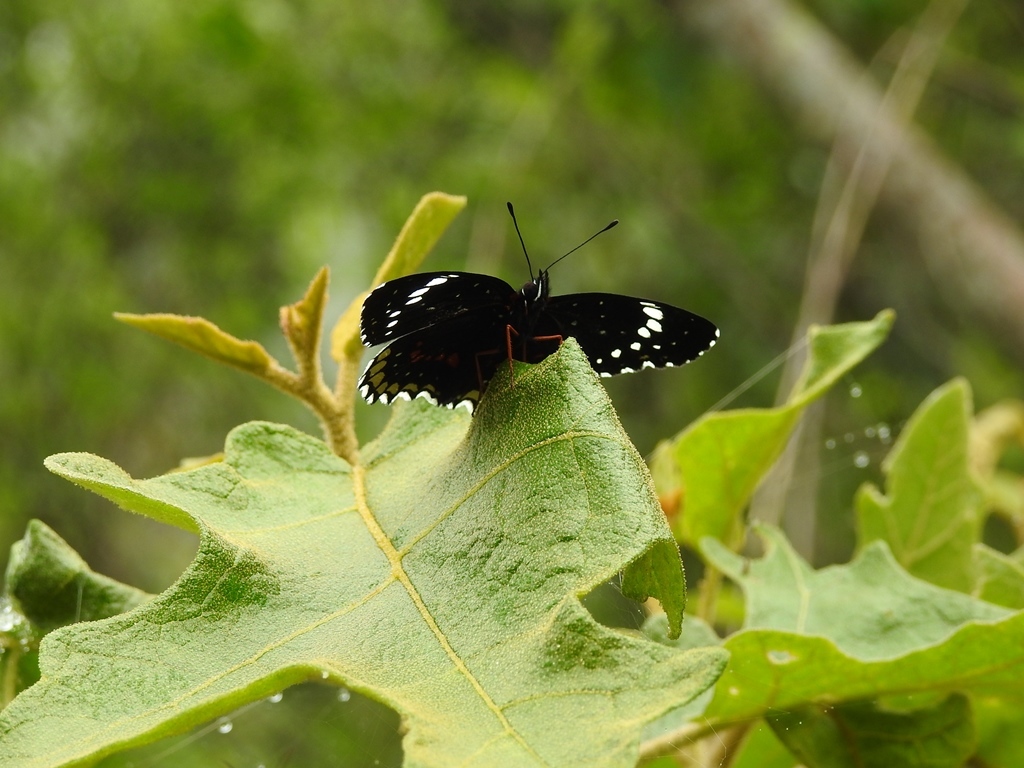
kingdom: Animalia
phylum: Arthropoda
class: Insecta
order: Lepidoptera
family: Nymphalidae
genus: Chlosyne
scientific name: Chlosyne hippodrome
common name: Simple patch
